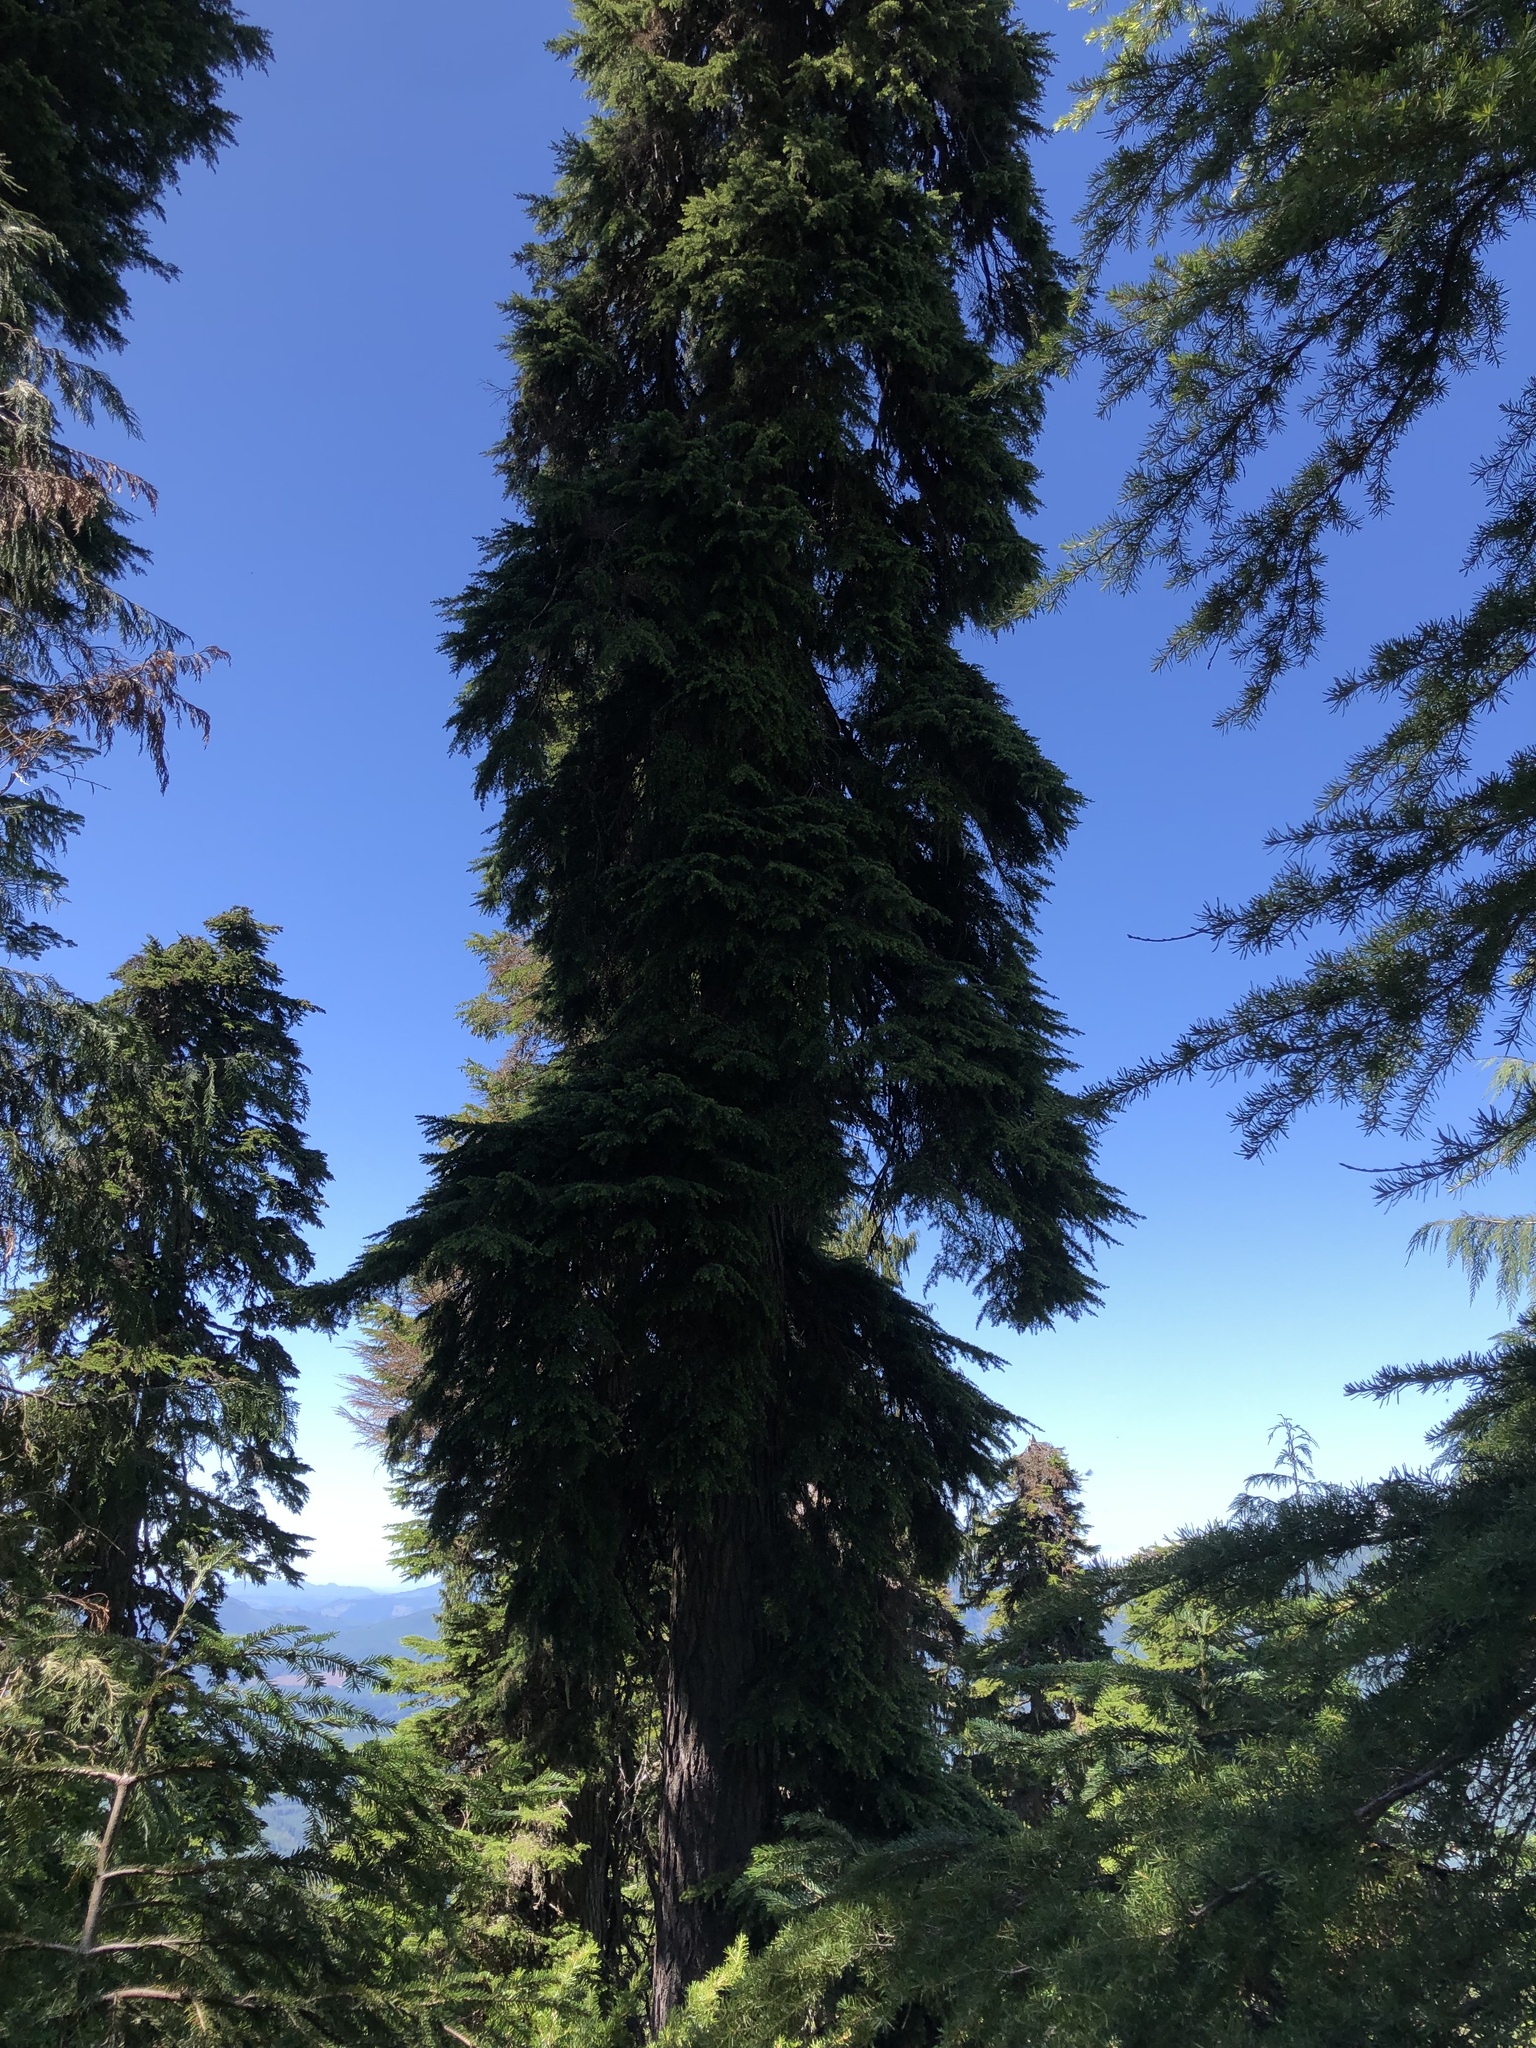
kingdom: Plantae
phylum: Tracheophyta
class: Pinopsida
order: Pinales
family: Pinaceae
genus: Tsuga
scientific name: Tsuga mertensiana
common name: Mountain hemlock
